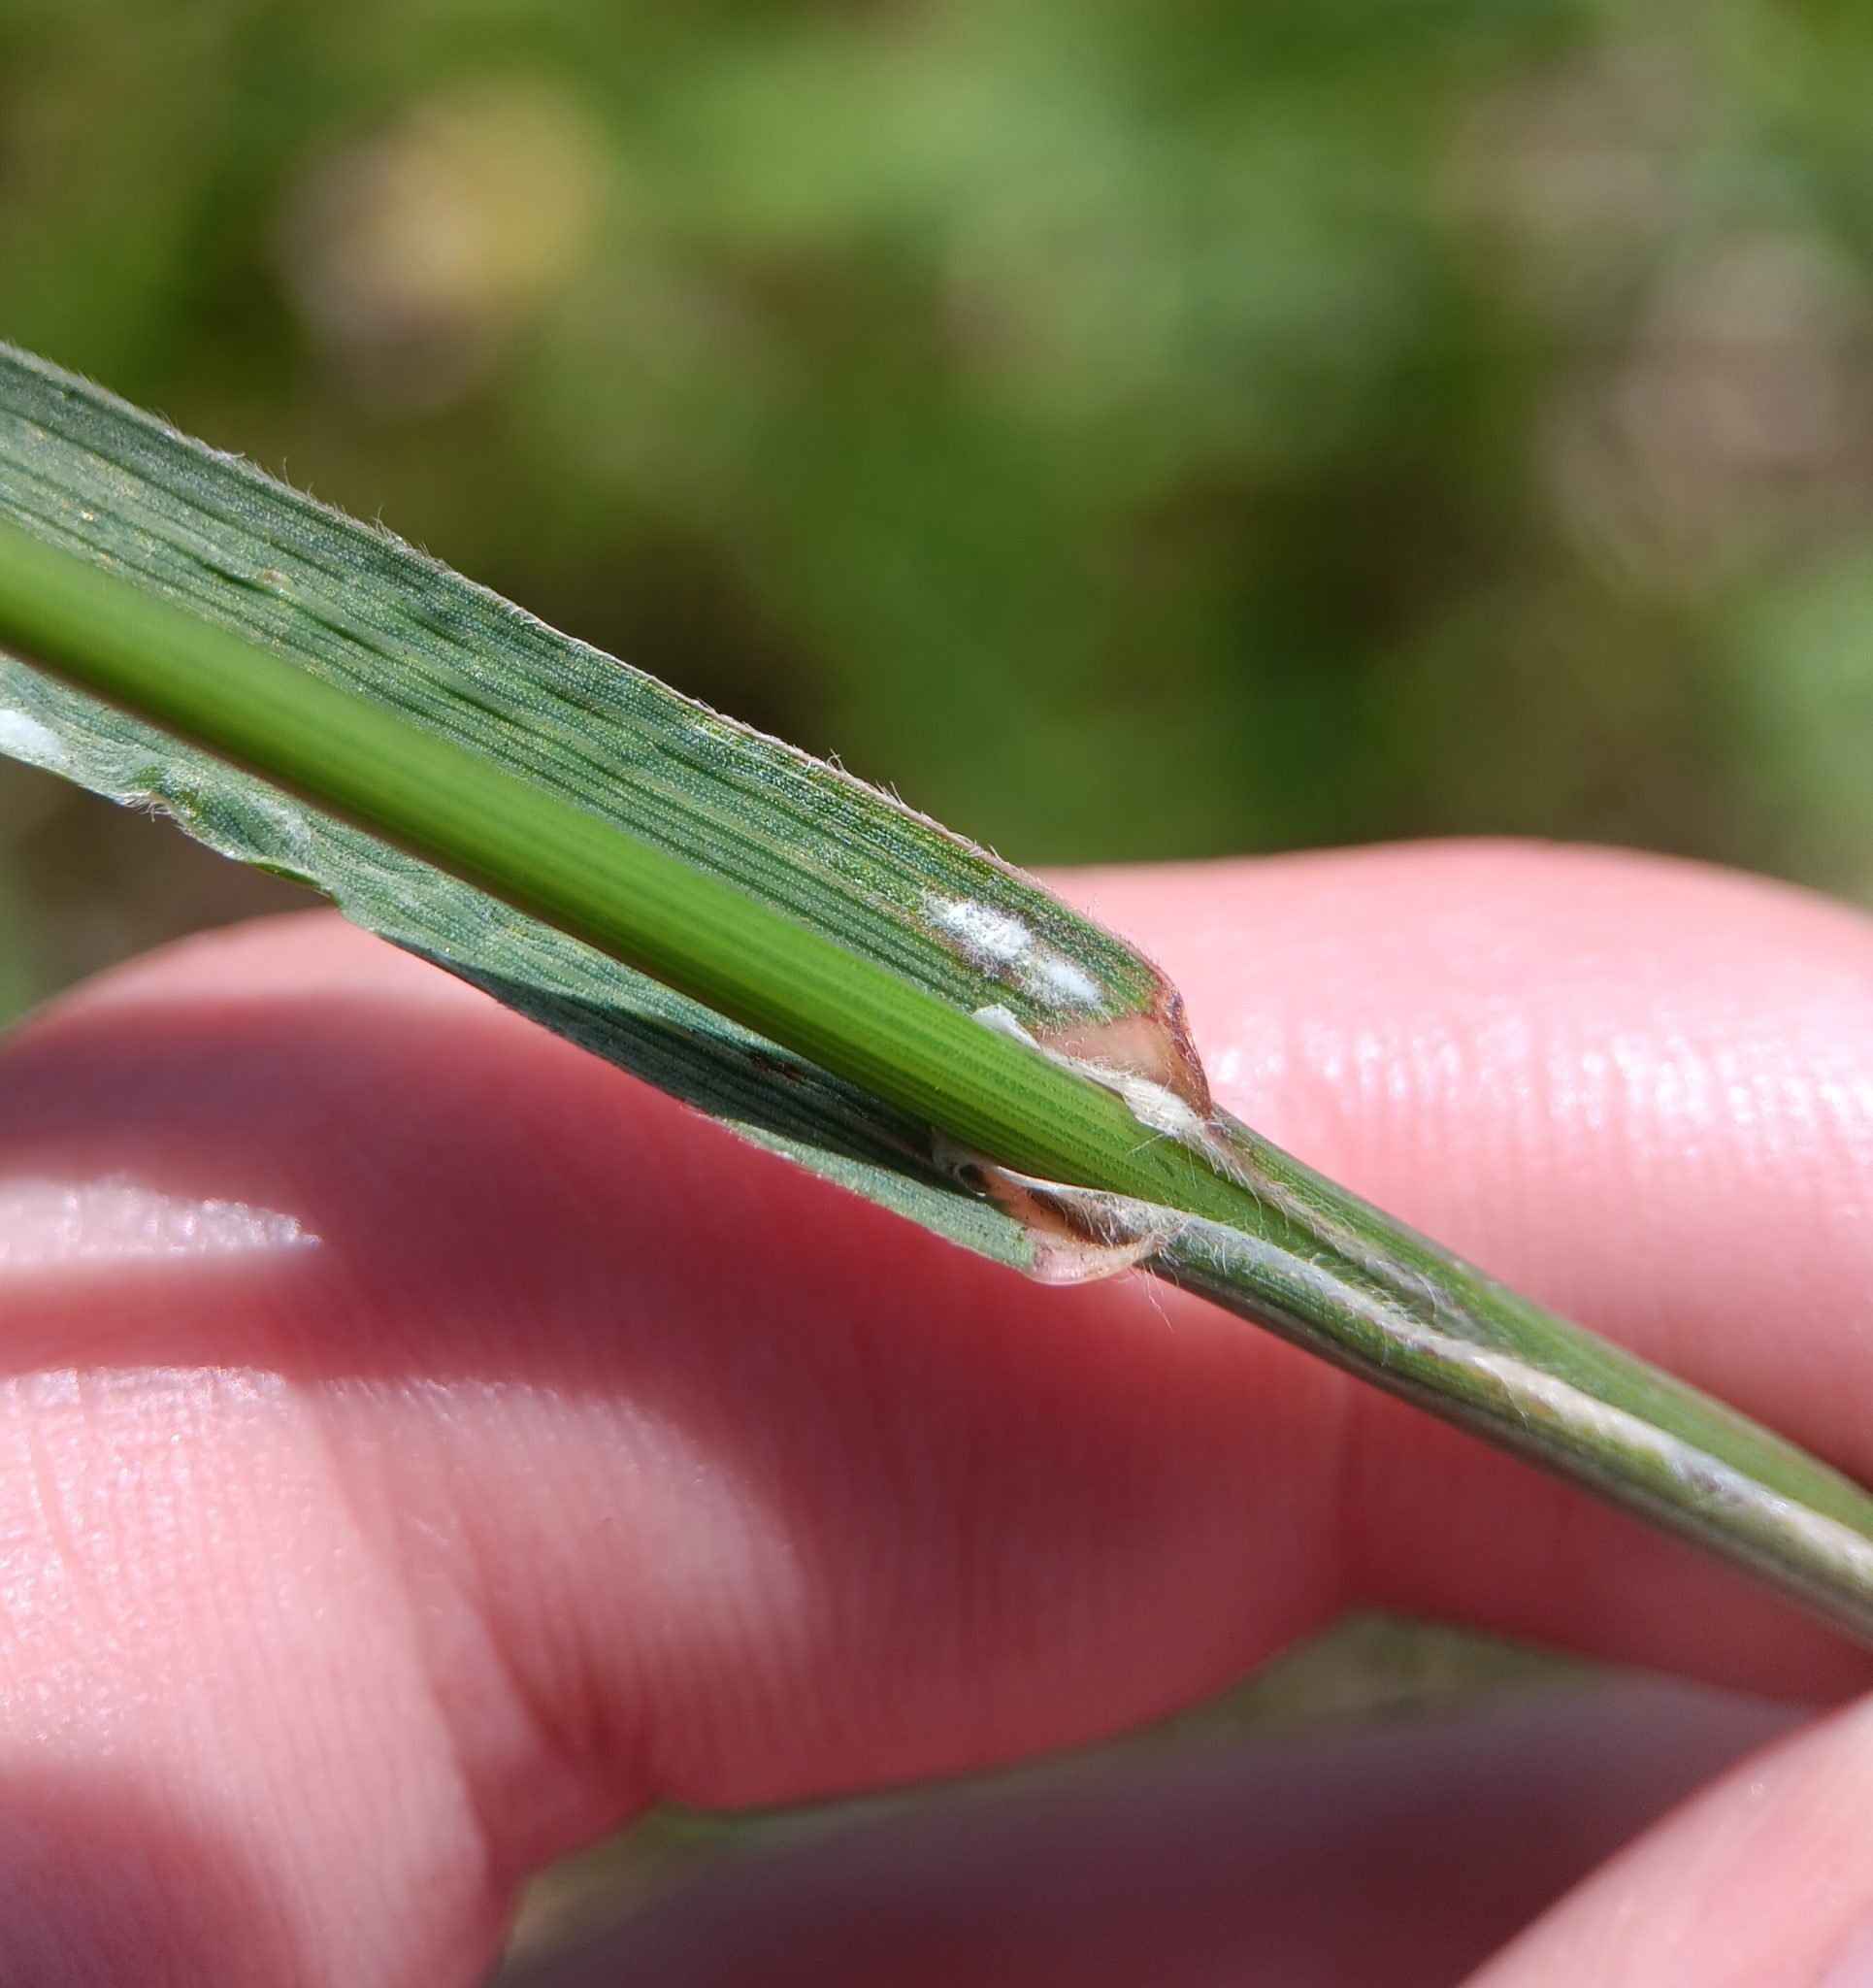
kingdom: Plantae
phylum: Tracheophyta
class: Liliopsida
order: Poales
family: Poaceae
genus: Bromus
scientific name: Bromus catharticus
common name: Rescuegrass
